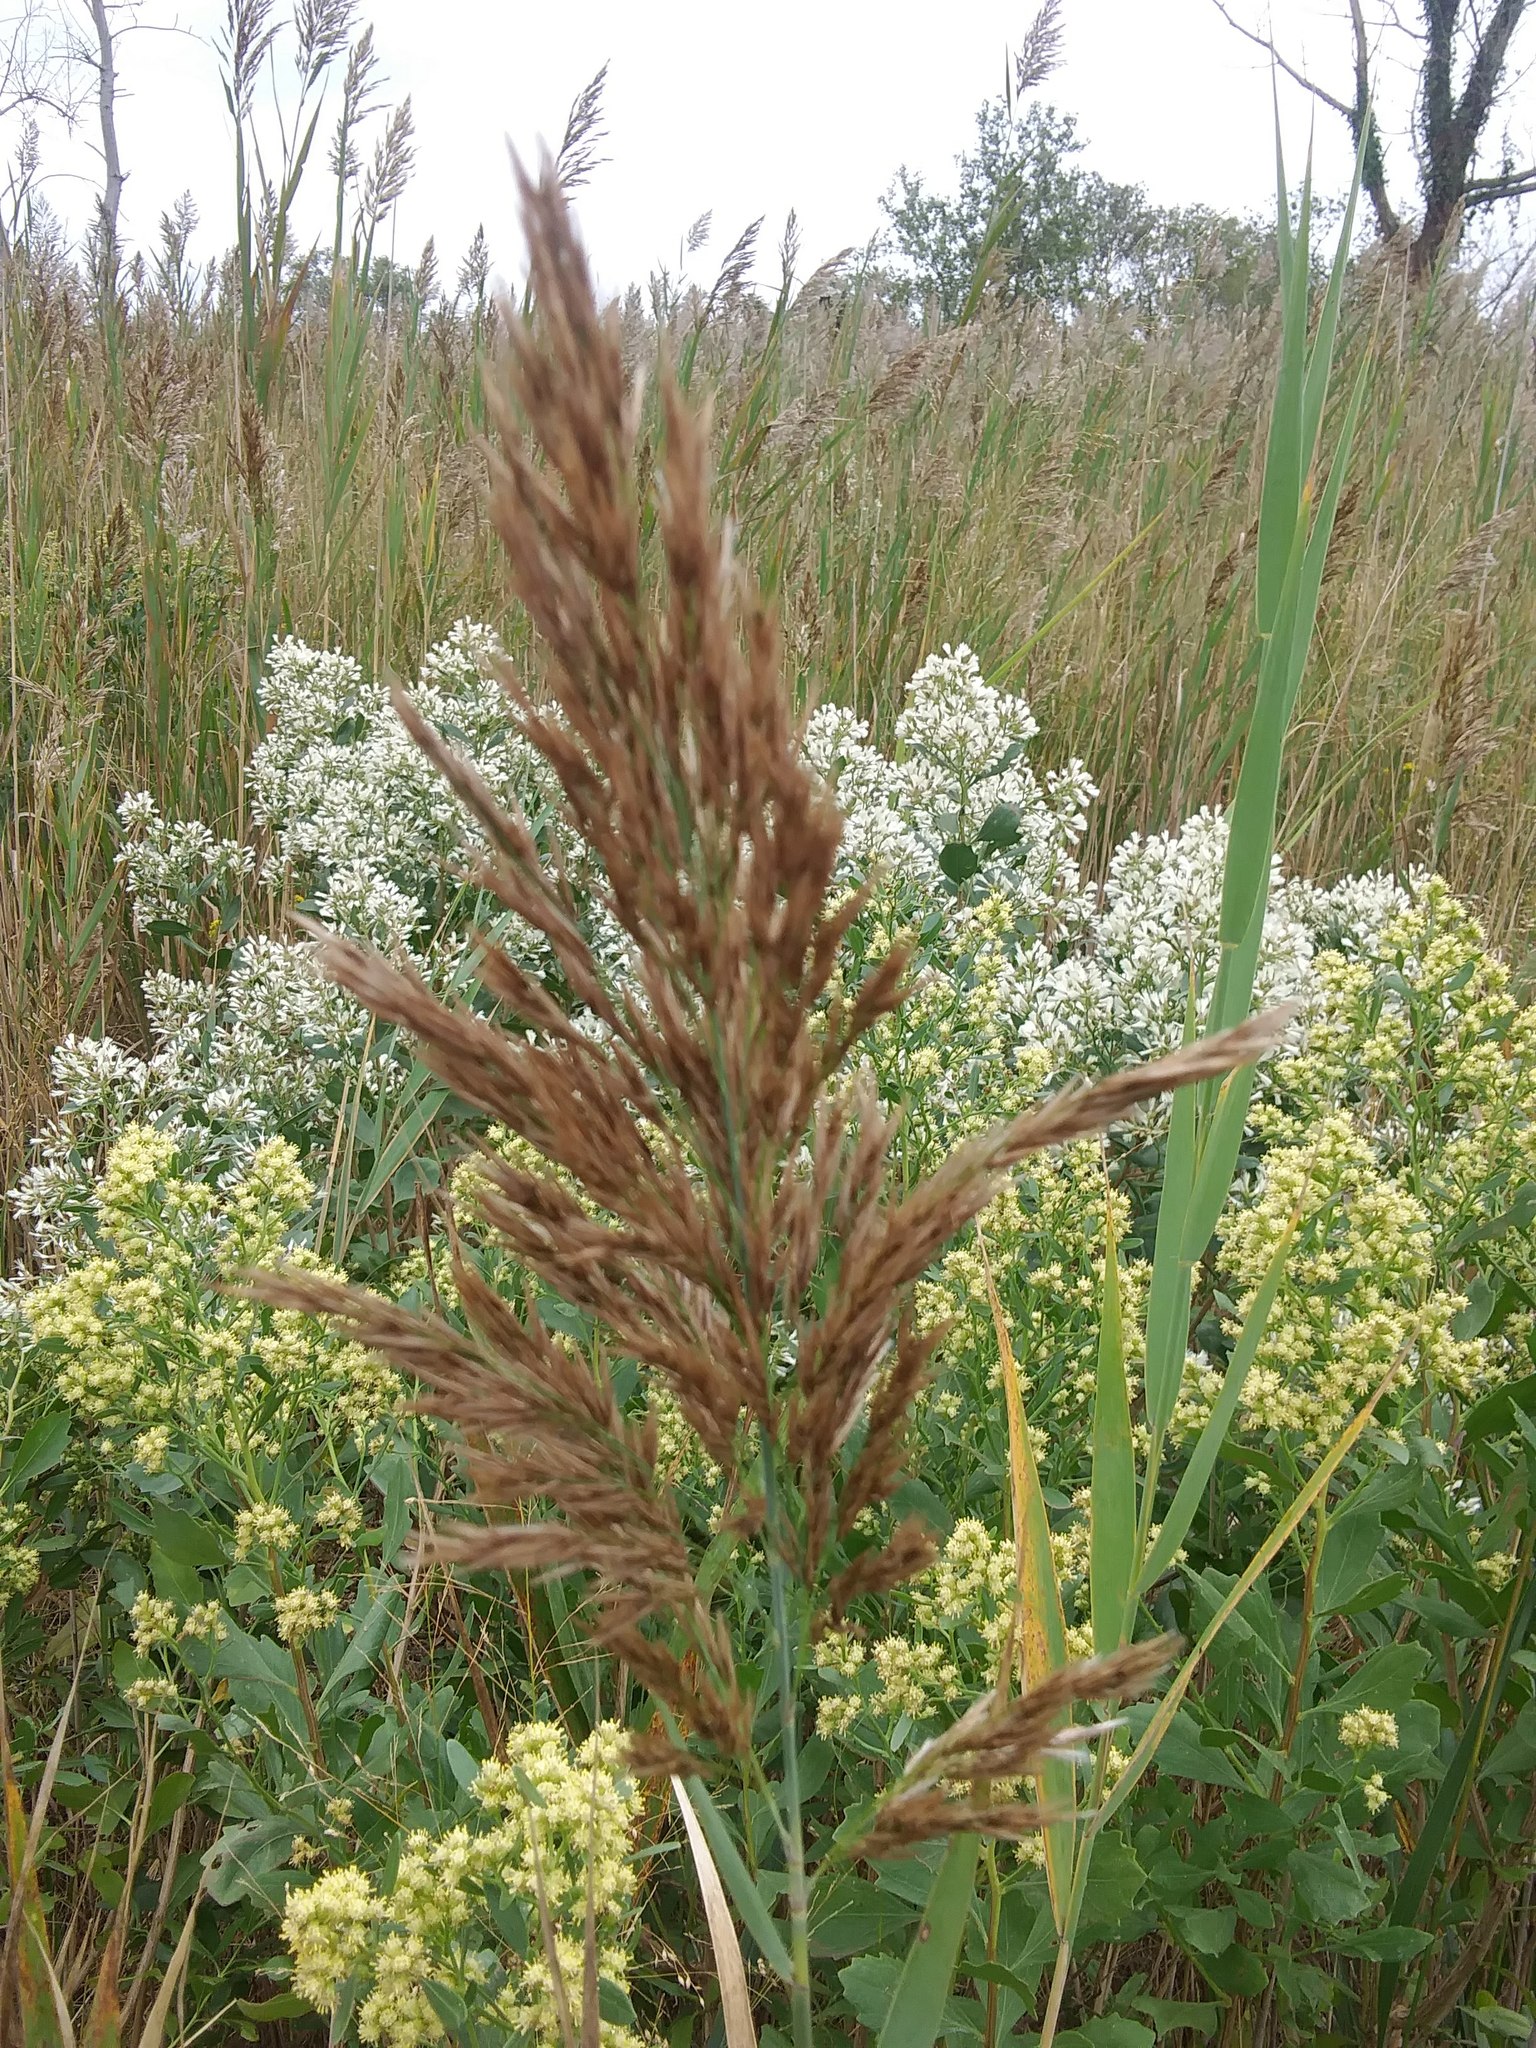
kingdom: Plantae
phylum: Tracheophyta
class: Liliopsida
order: Poales
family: Poaceae
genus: Phragmites
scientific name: Phragmites australis
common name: Common reed
